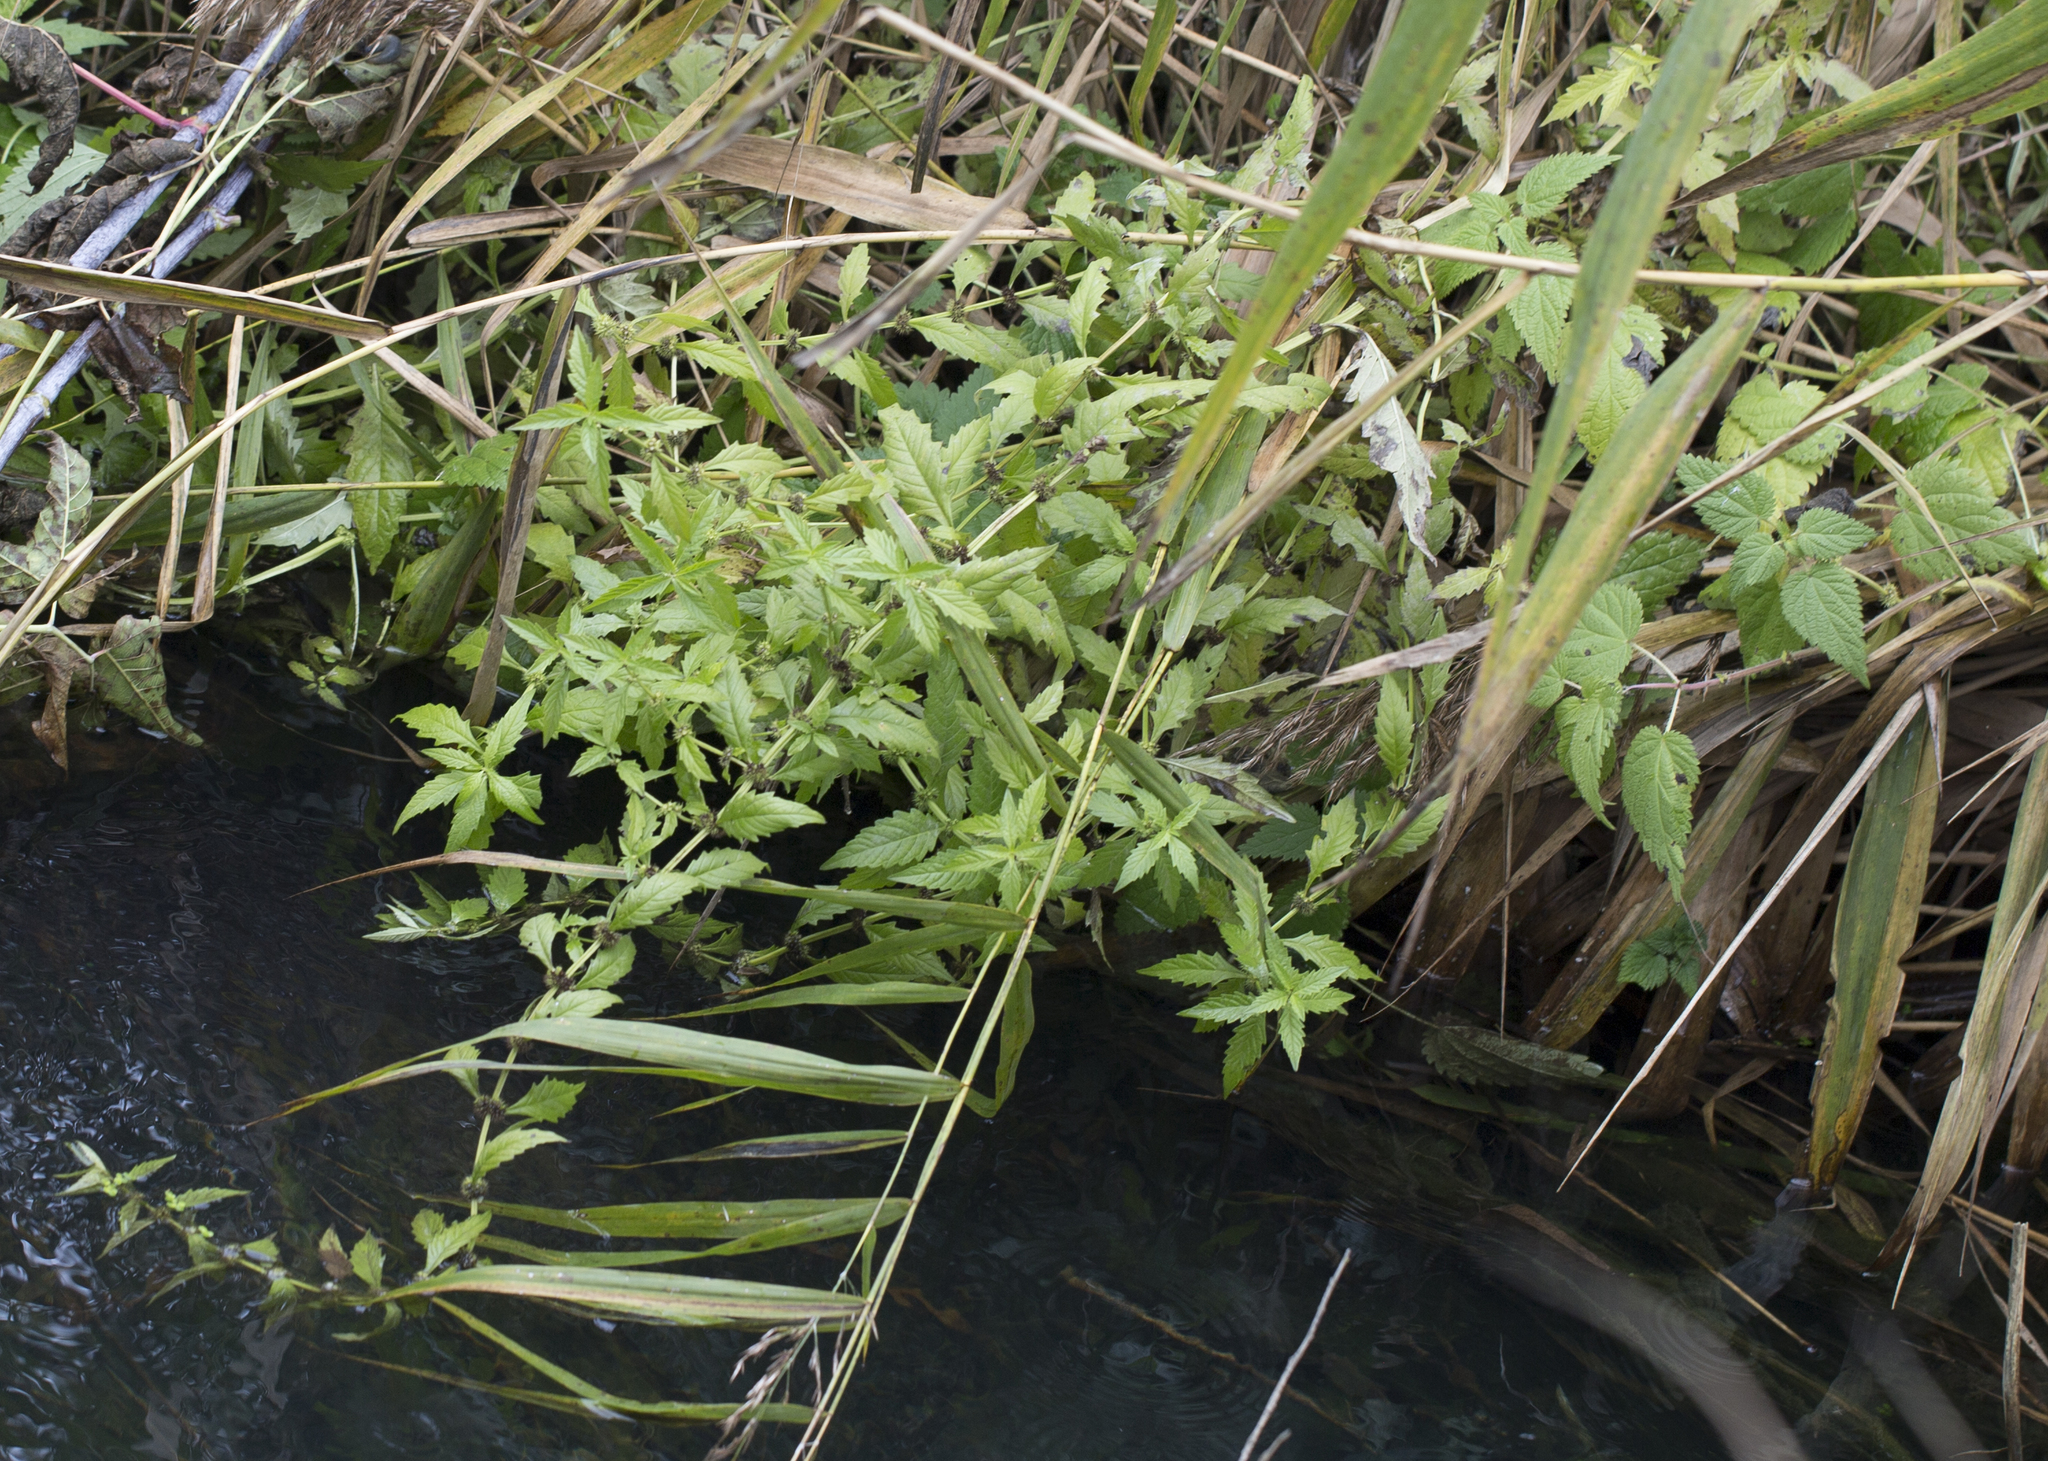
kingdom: Plantae
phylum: Tracheophyta
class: Magnoliopsida
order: Lamiales
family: Lamiaceae
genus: Lycopus
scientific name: Lycopus europaeus
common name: European bugleweed
